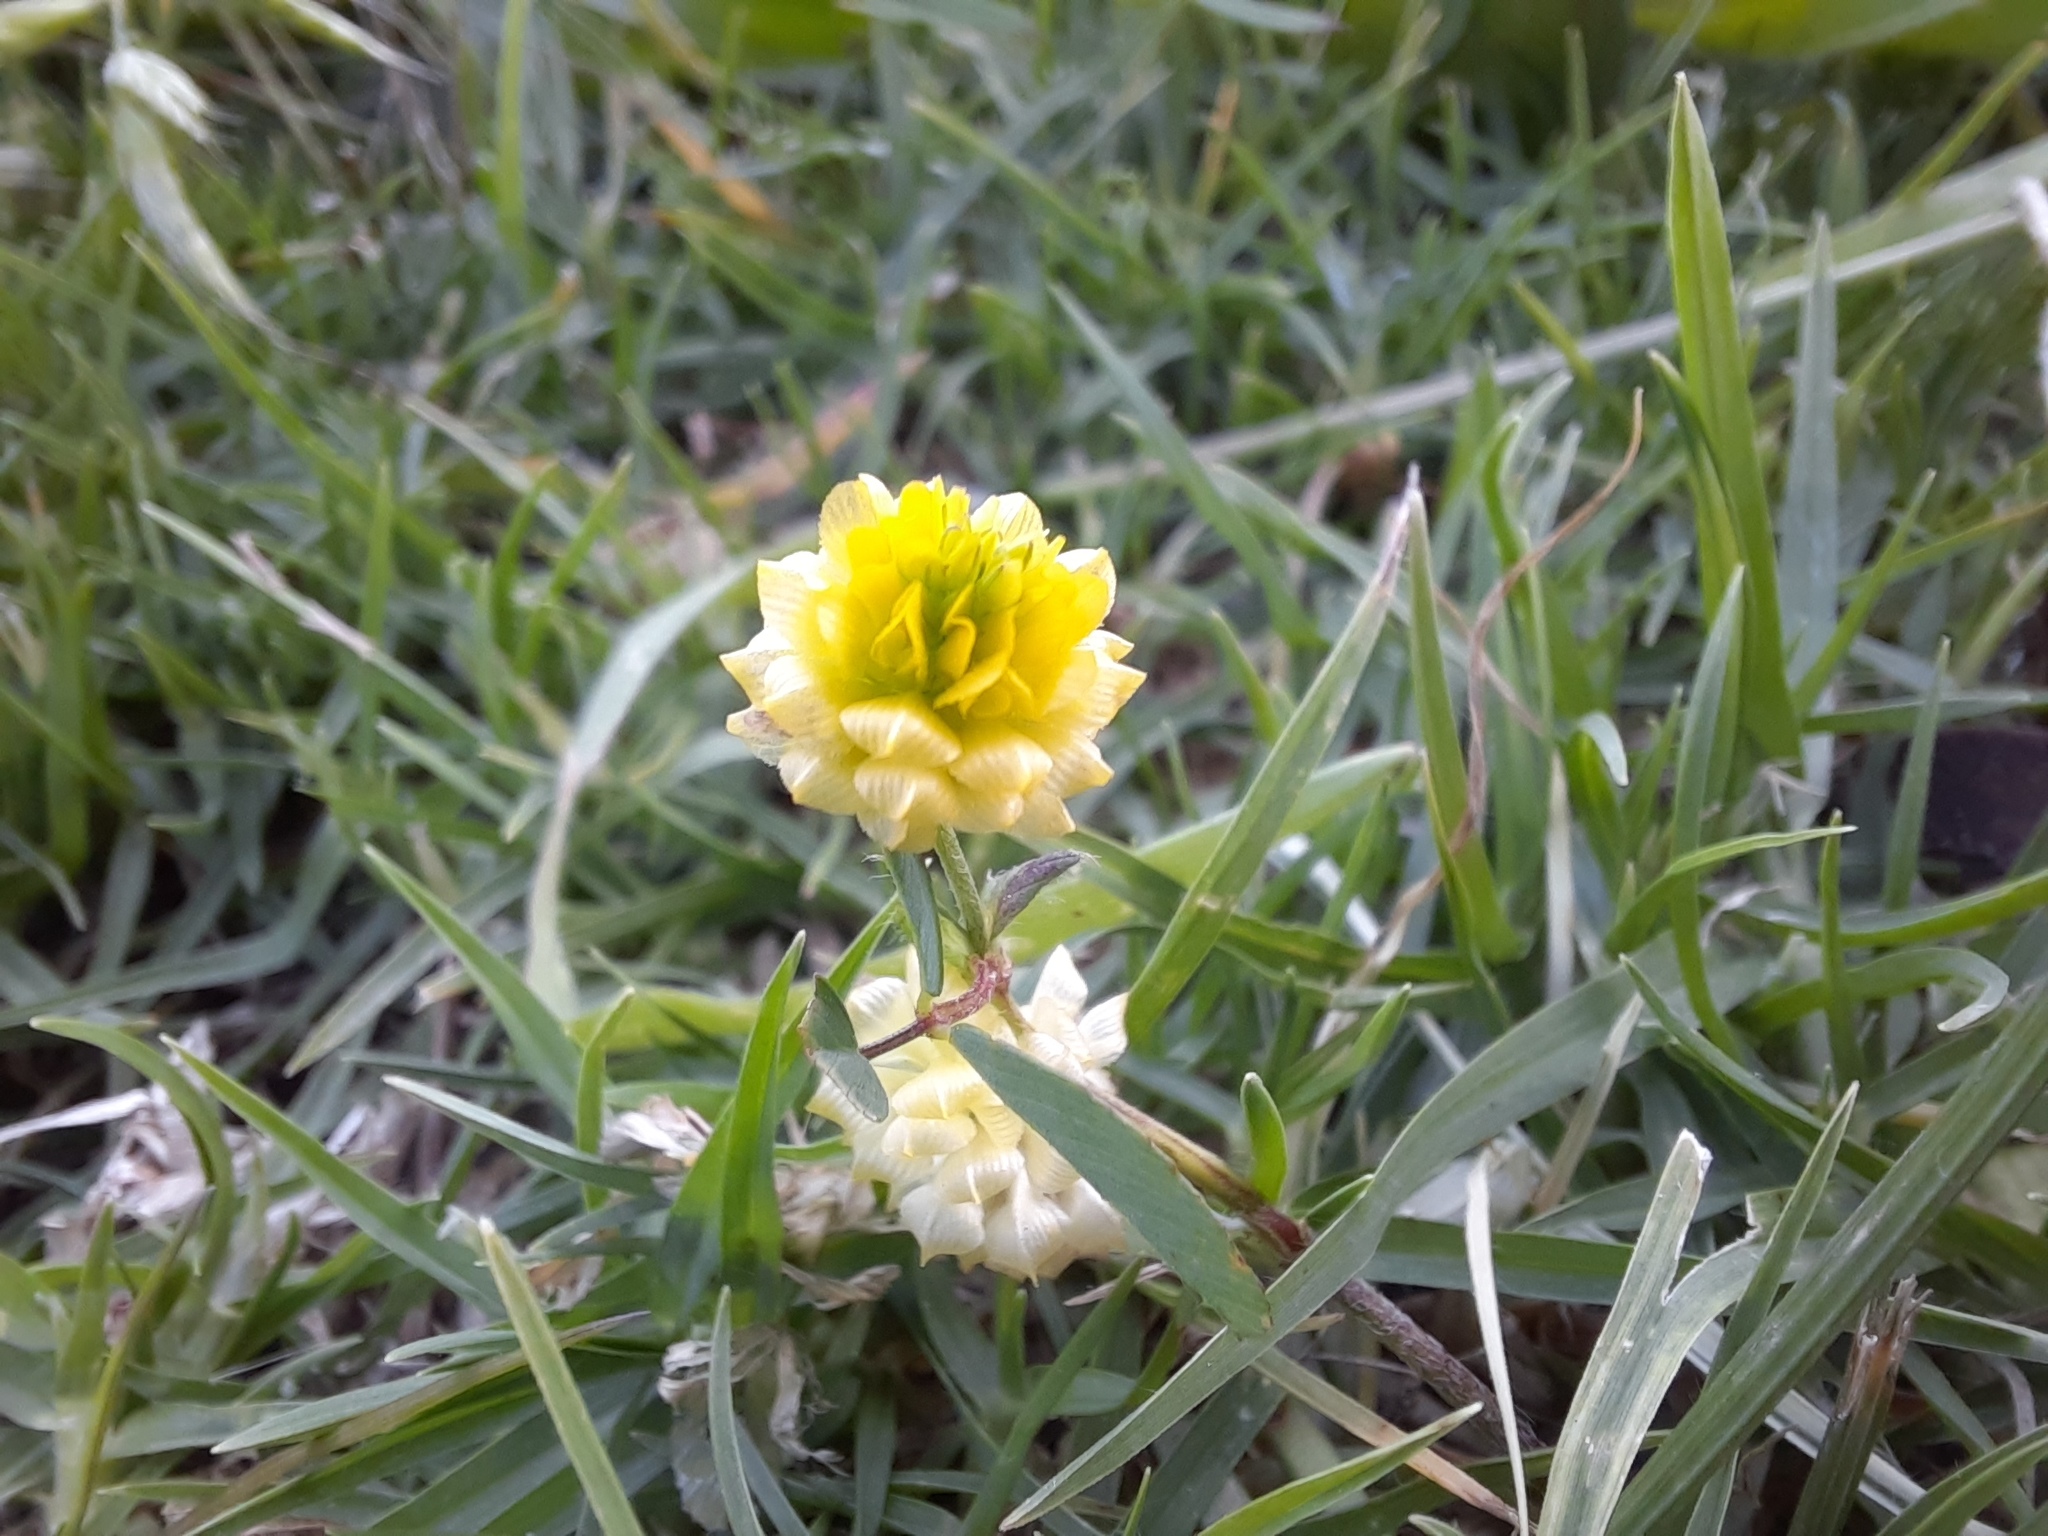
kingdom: Plantae
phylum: Tracheophyta
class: Magnoliopsida
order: Fabales
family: Fabaceae
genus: Trifolium
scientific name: Trifolium campestre
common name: Field clover
